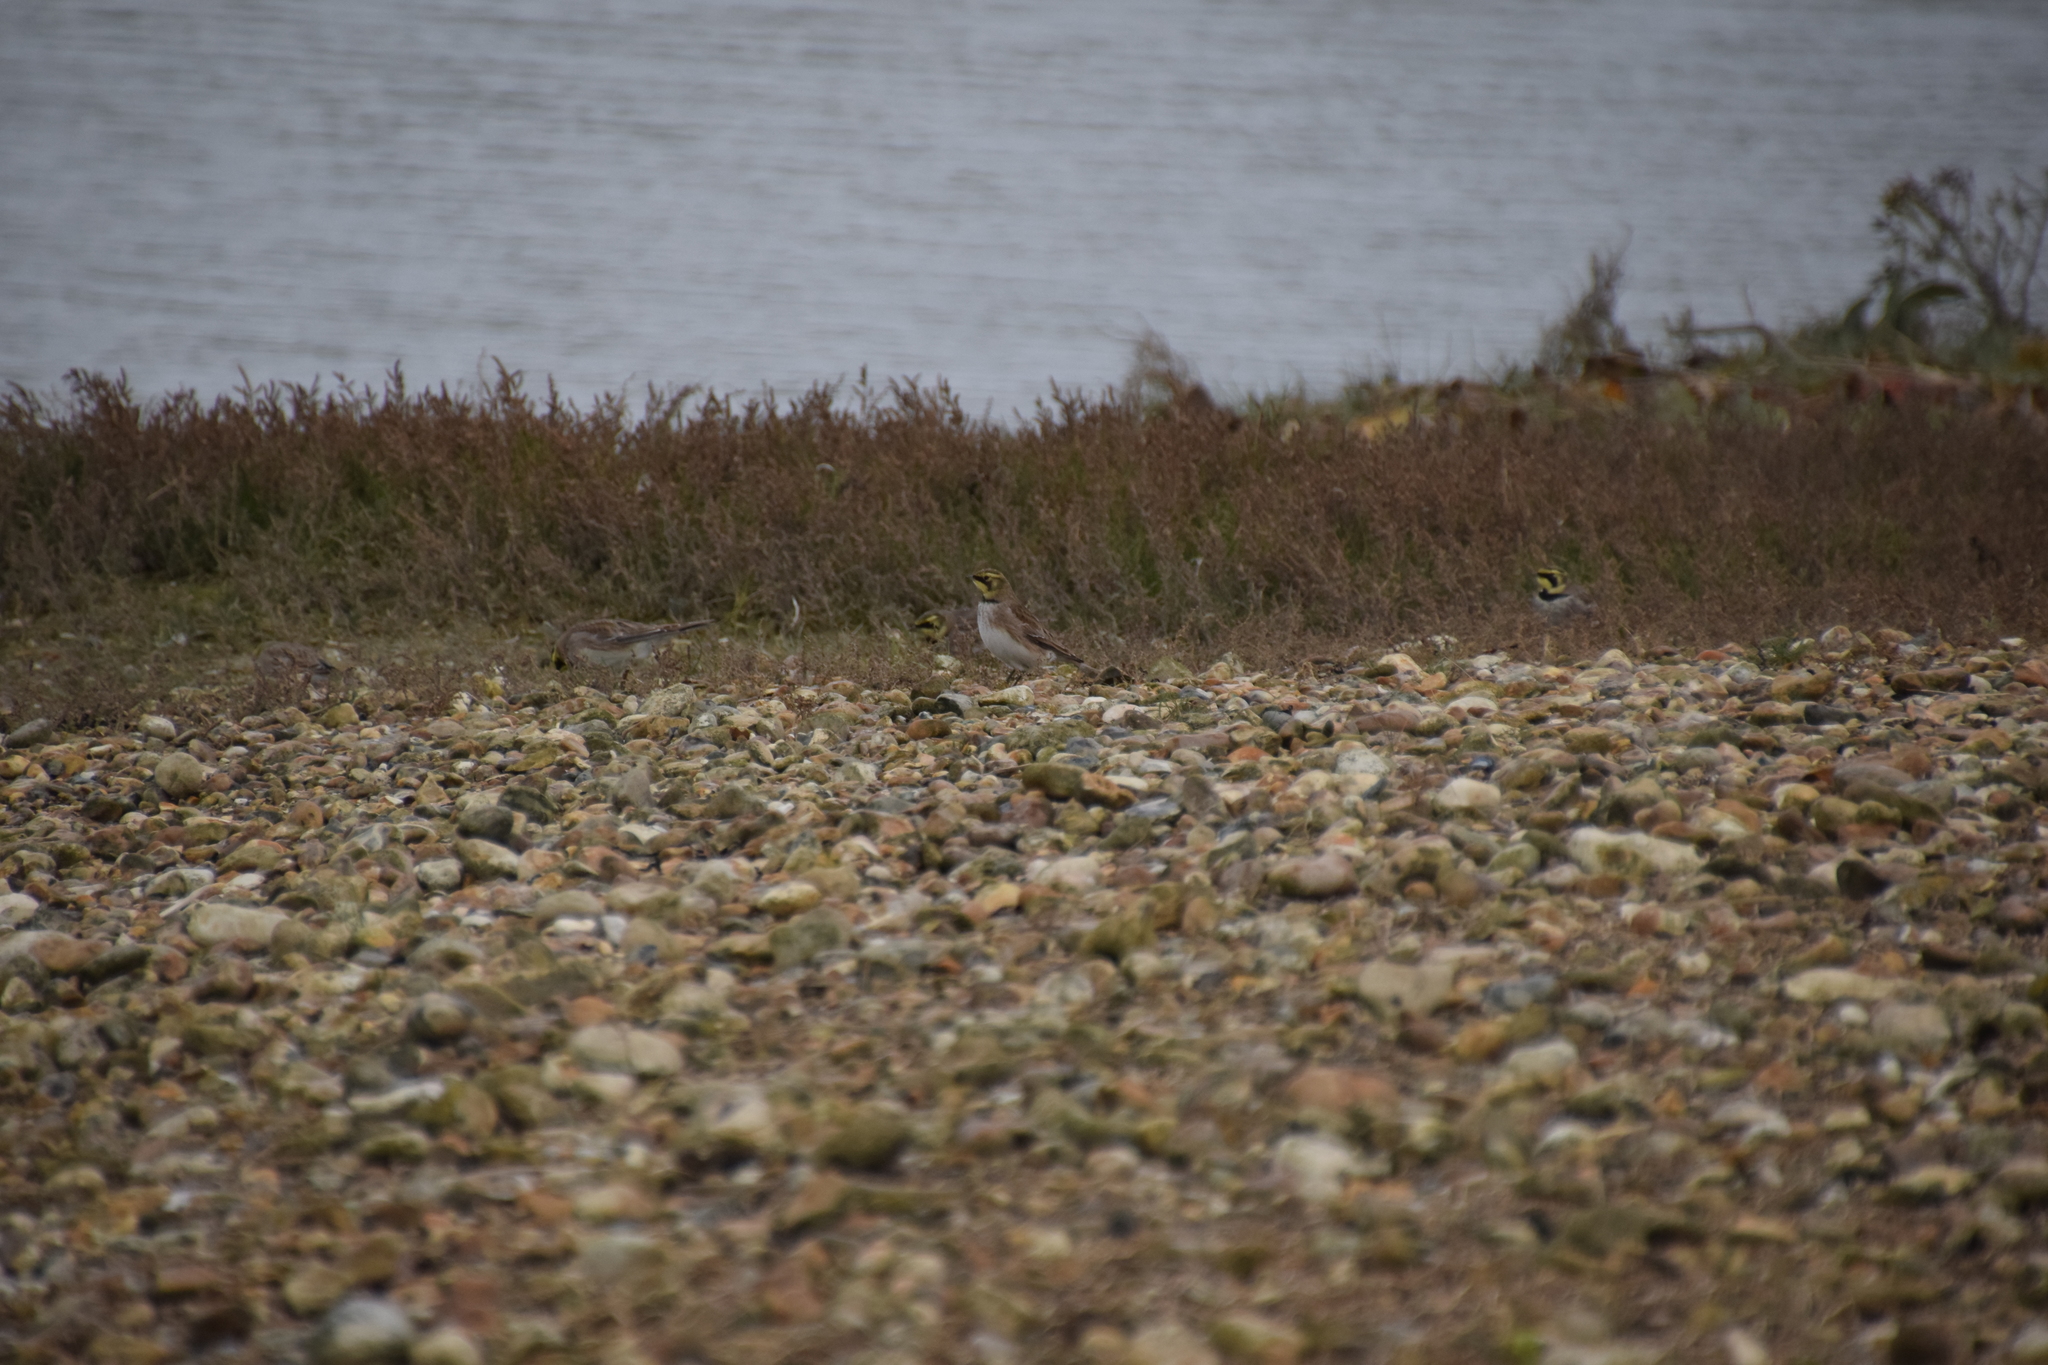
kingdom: Animalia
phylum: Chordata
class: Aves
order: Passeriformes
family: Alaudidae
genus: Eremophila
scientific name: Eremophila alpestris
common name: Horned lark
